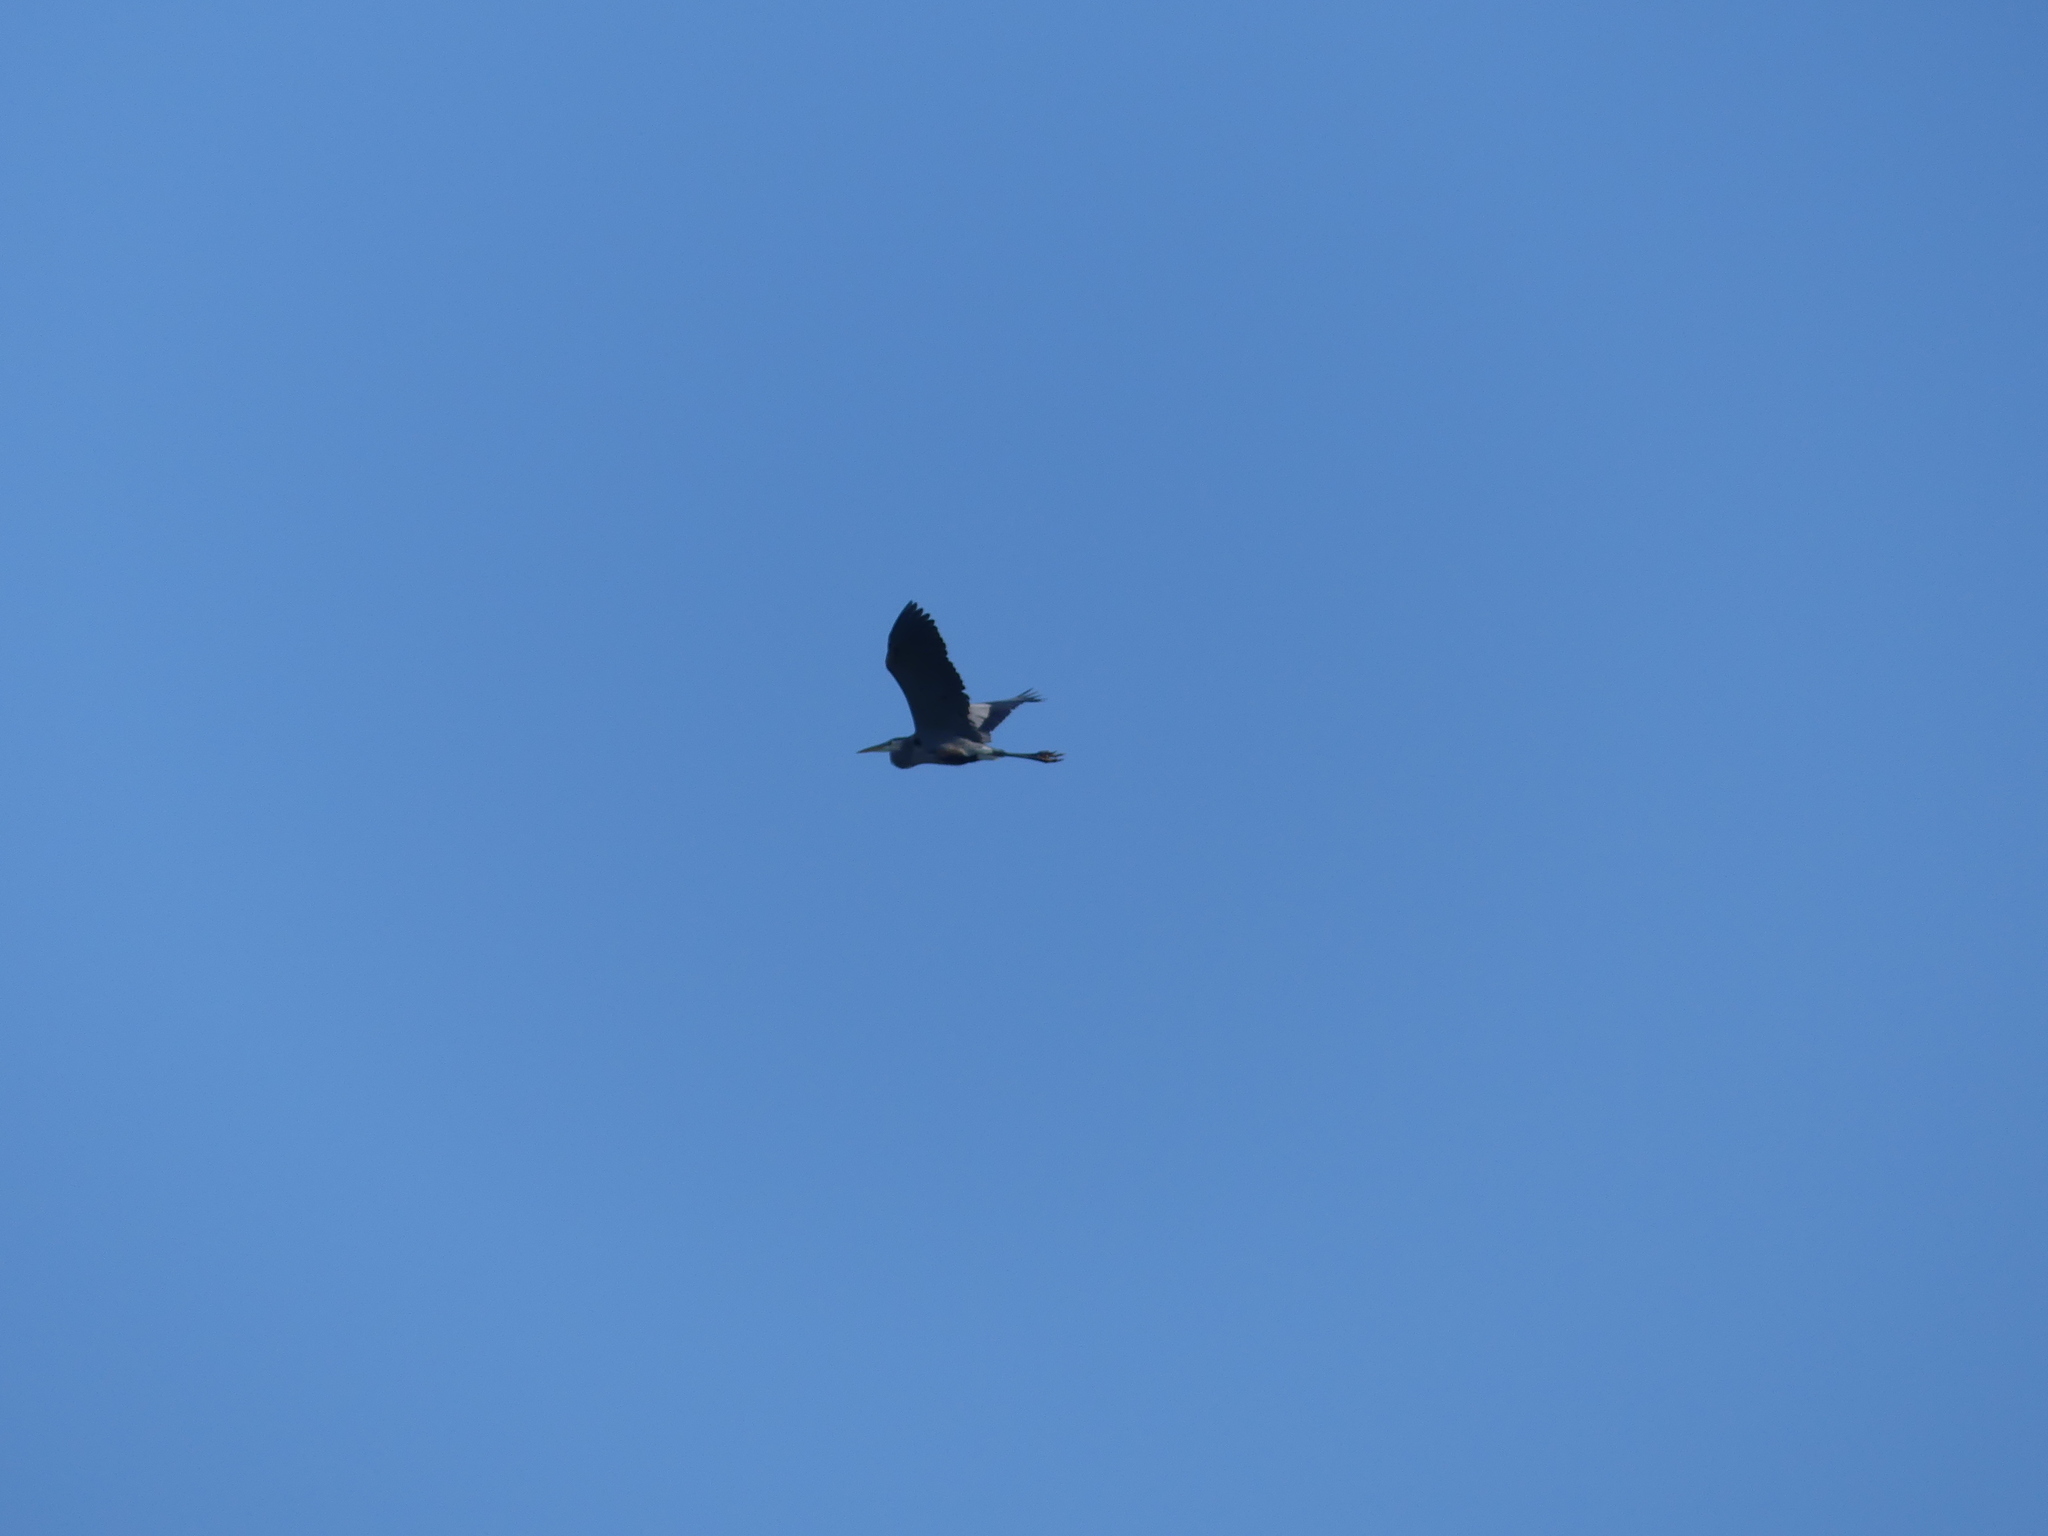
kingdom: Animalia
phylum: Chordata
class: Aves
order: Pelecaniformes
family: Ardeidae
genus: Ardea
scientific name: Ardea herodias
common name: Great blue heron
